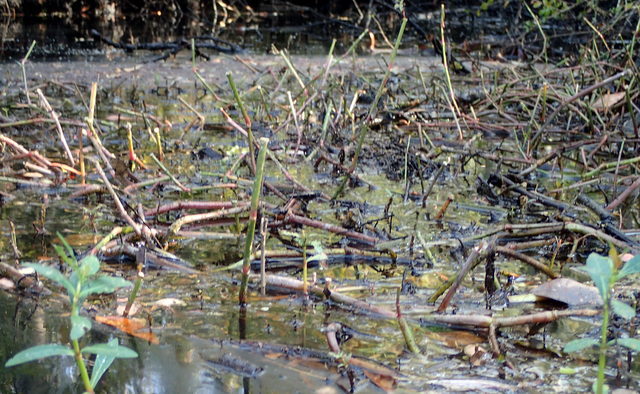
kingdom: Plantae
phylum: Tracheophyta
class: Magnoliopsida
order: Caryophyllales
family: Amaranthaceae
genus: Alternanthera
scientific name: Alternanthera philoxeroides
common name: Alligatorweed
